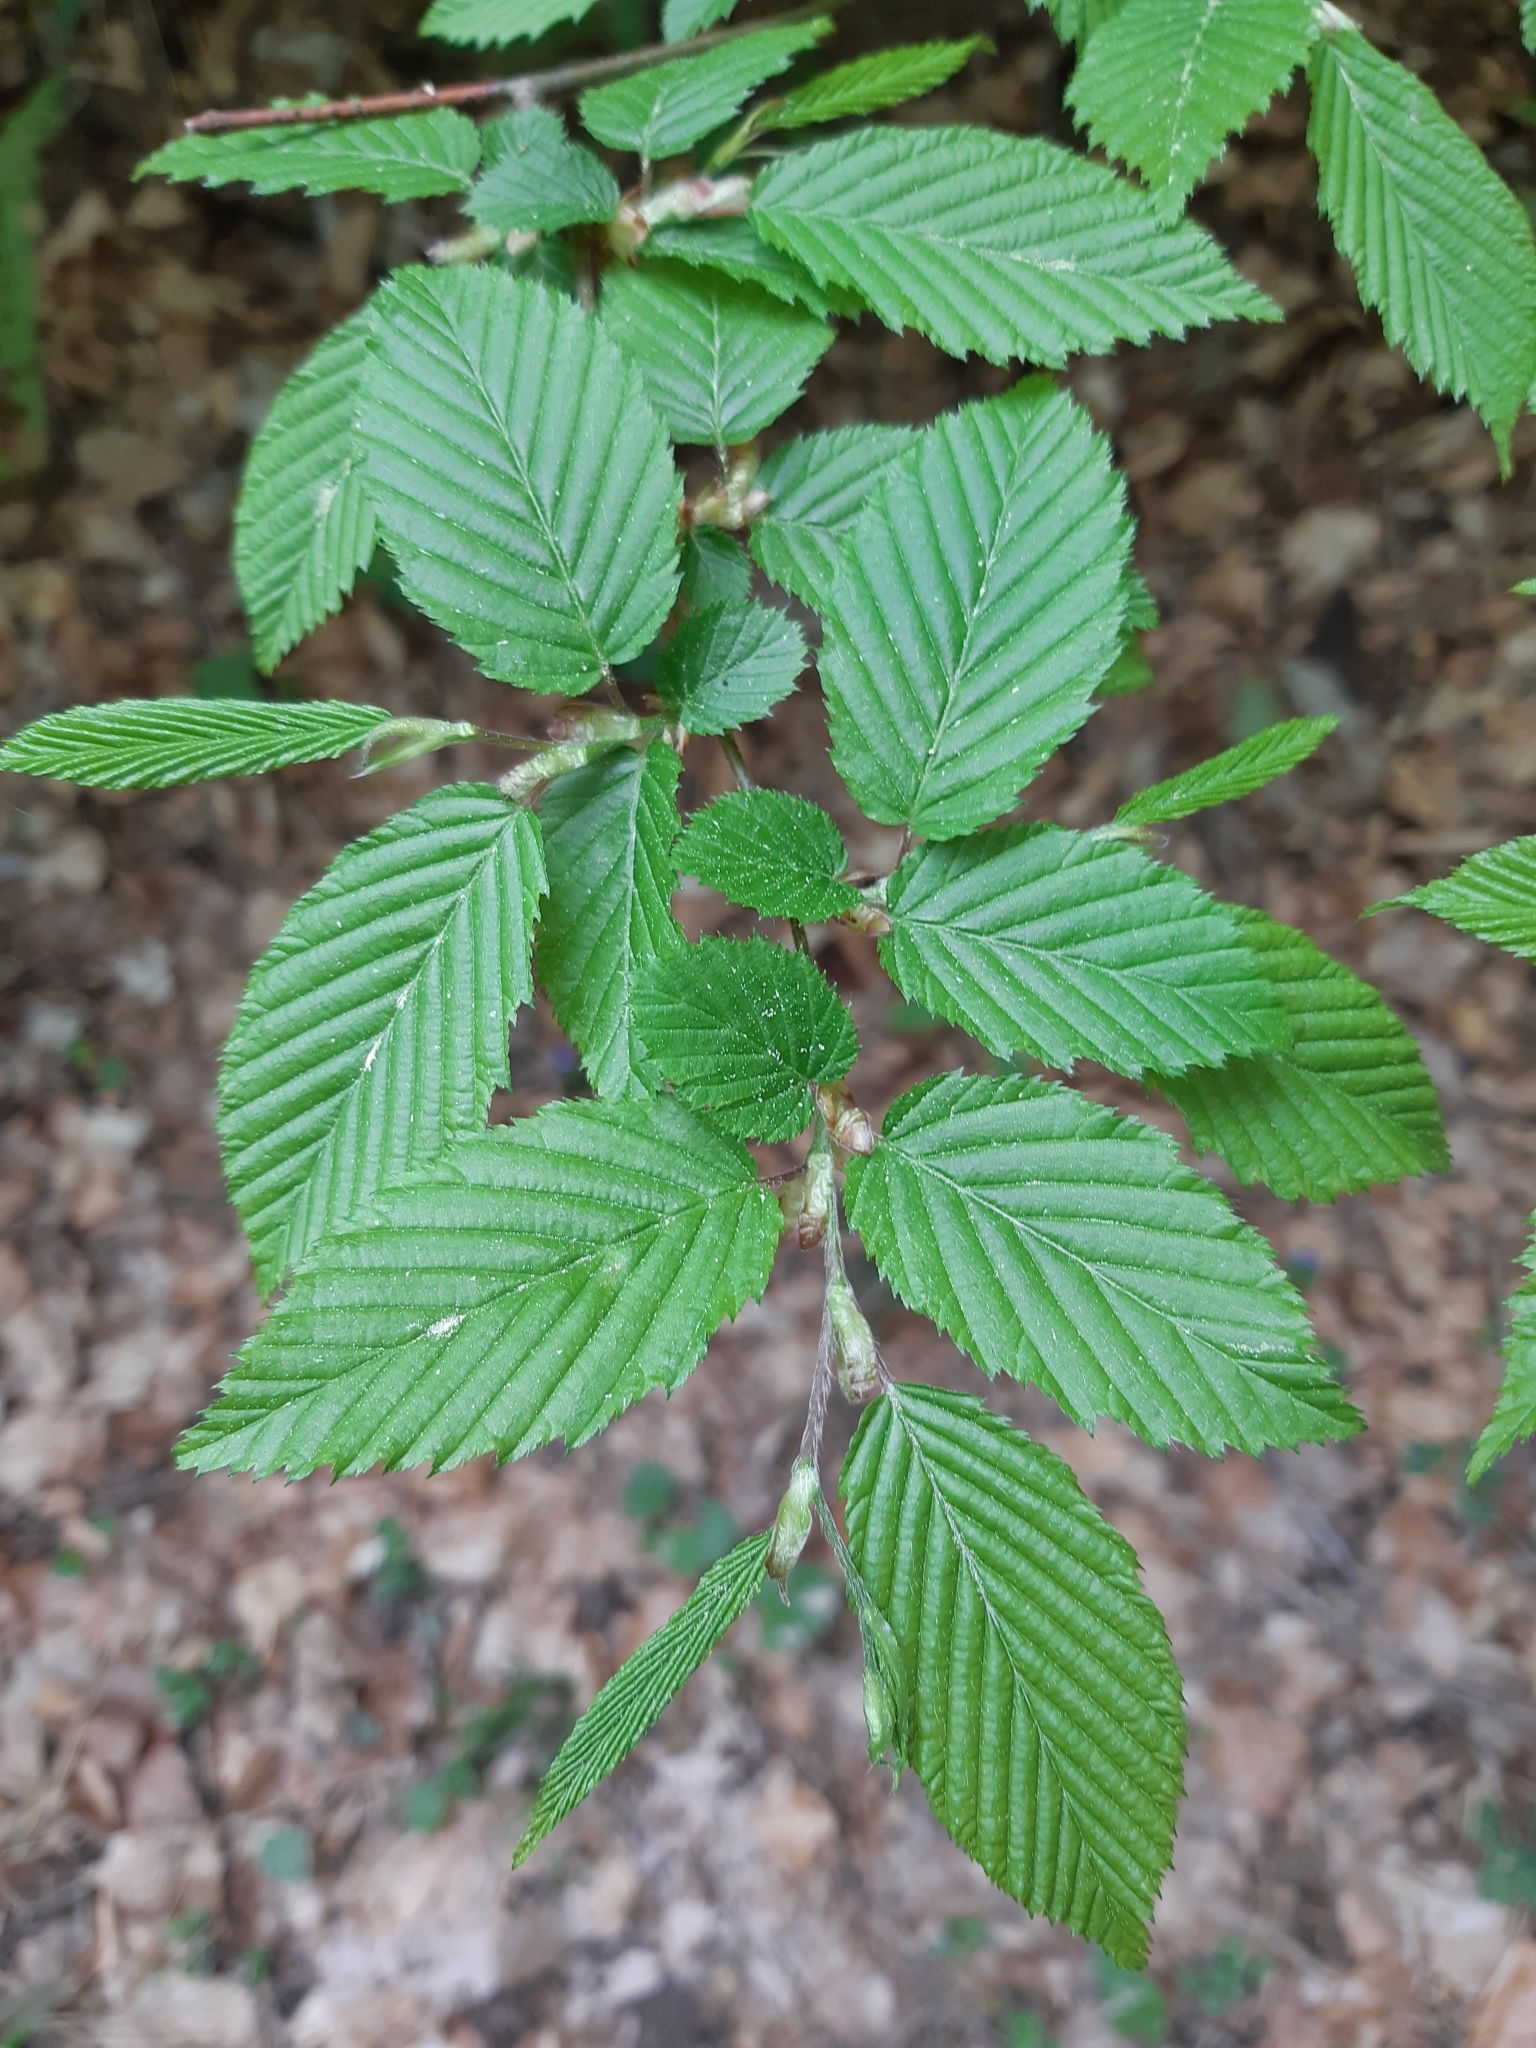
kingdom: Plantae
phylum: Tracheophyta
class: Magnoliopsida
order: Fagales
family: Betulaceae
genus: Carpinus
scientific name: Carpinus betulus
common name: Hornbeam
